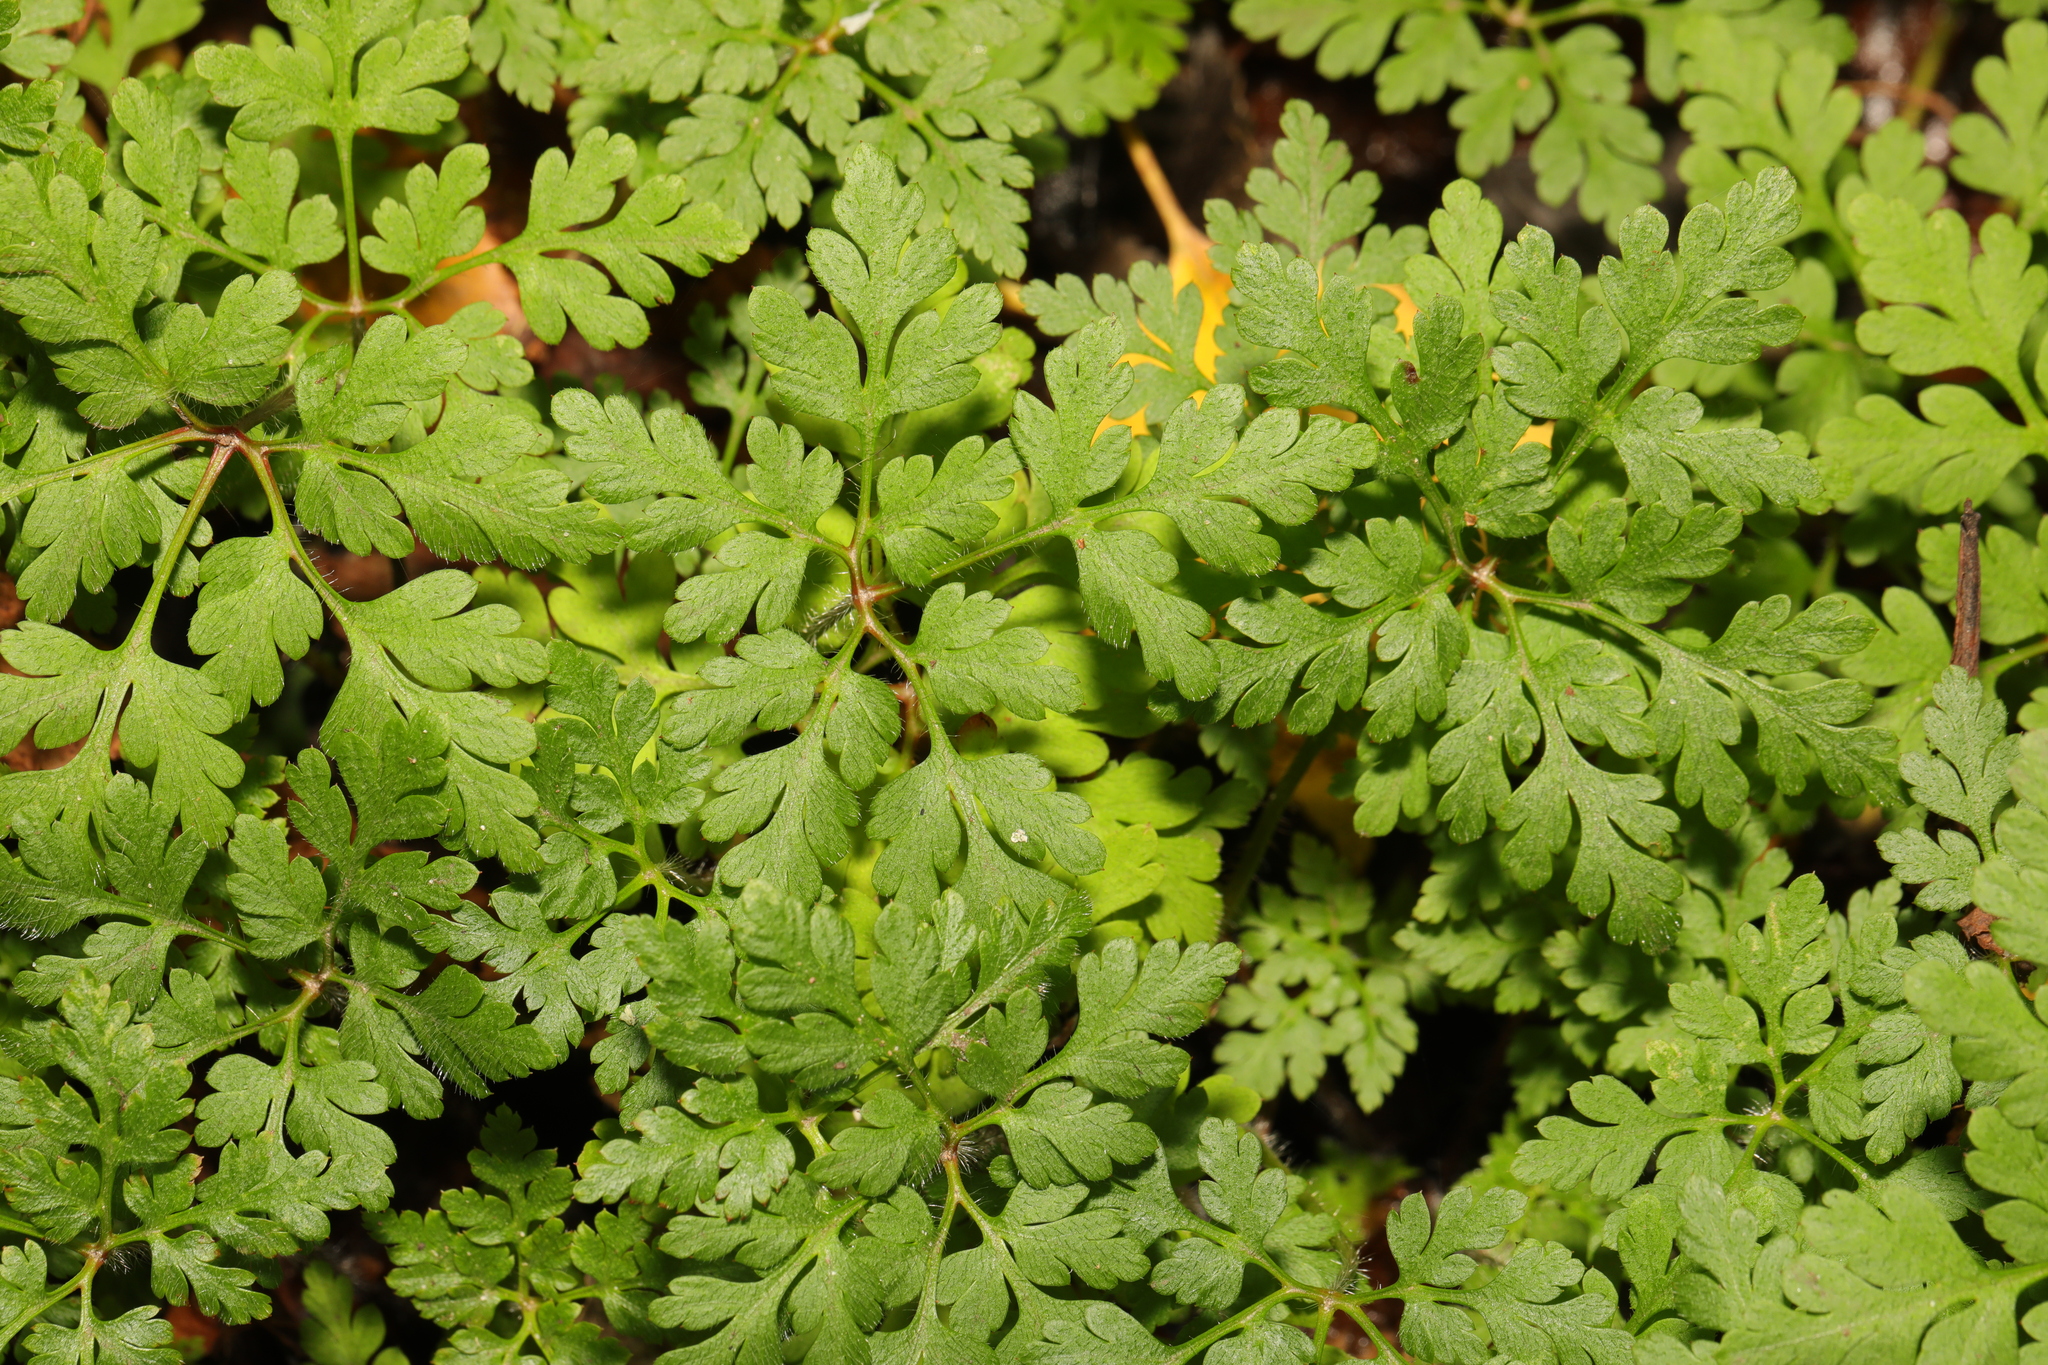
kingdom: Plantae
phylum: Tracheophyta
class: Magnoliopsida
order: Geraniales
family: Geraniaceae
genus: Geranium
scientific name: Geranium robertianum
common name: Herb-robert
